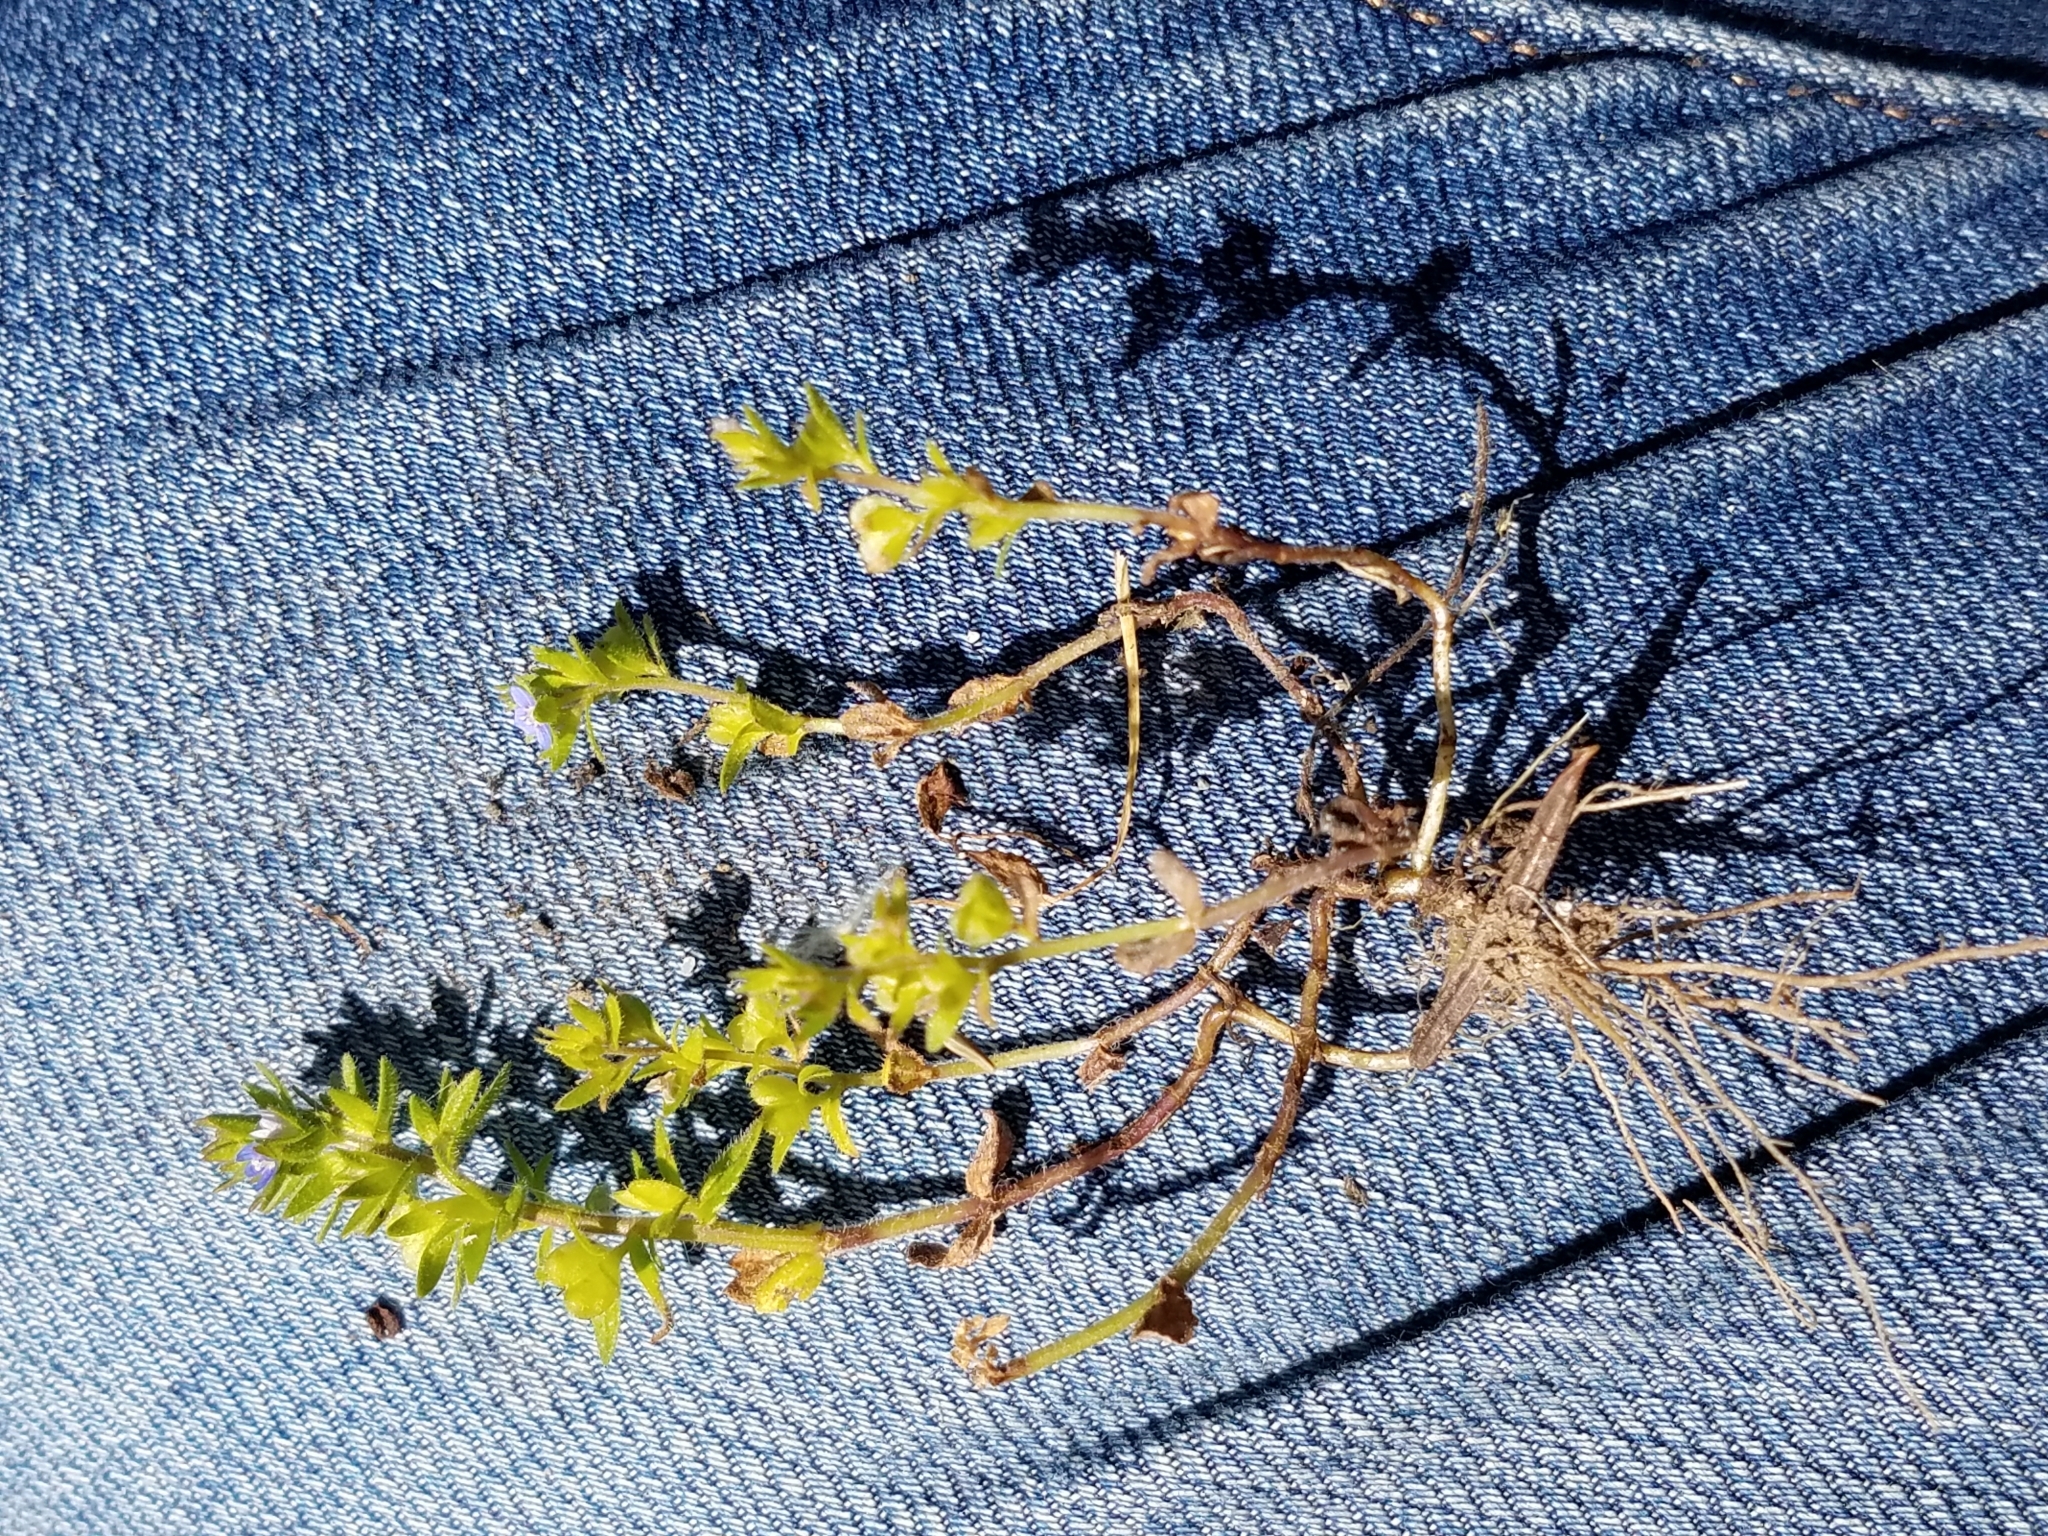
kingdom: Plantae
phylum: Tracheophyta
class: Magnoliopsida
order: Lamiales
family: Plantaginaceae
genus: Veronica
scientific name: Veronica arvensis
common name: Corn speedwell
